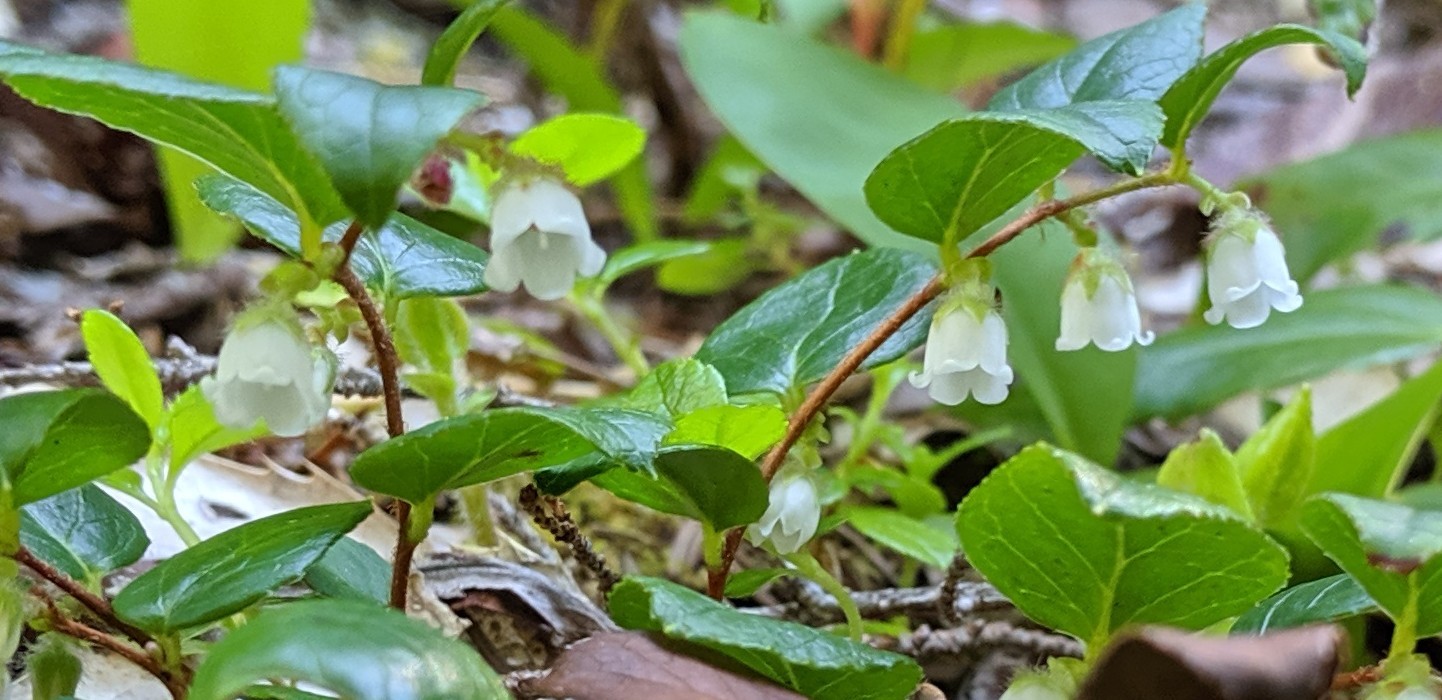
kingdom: Plantae
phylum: Tracheophyta
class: Magnoliopsida
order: Ericales
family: Ericaceae
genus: Gaultheria
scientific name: Gaultheria ovatifolia
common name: Oregon wintergreen
